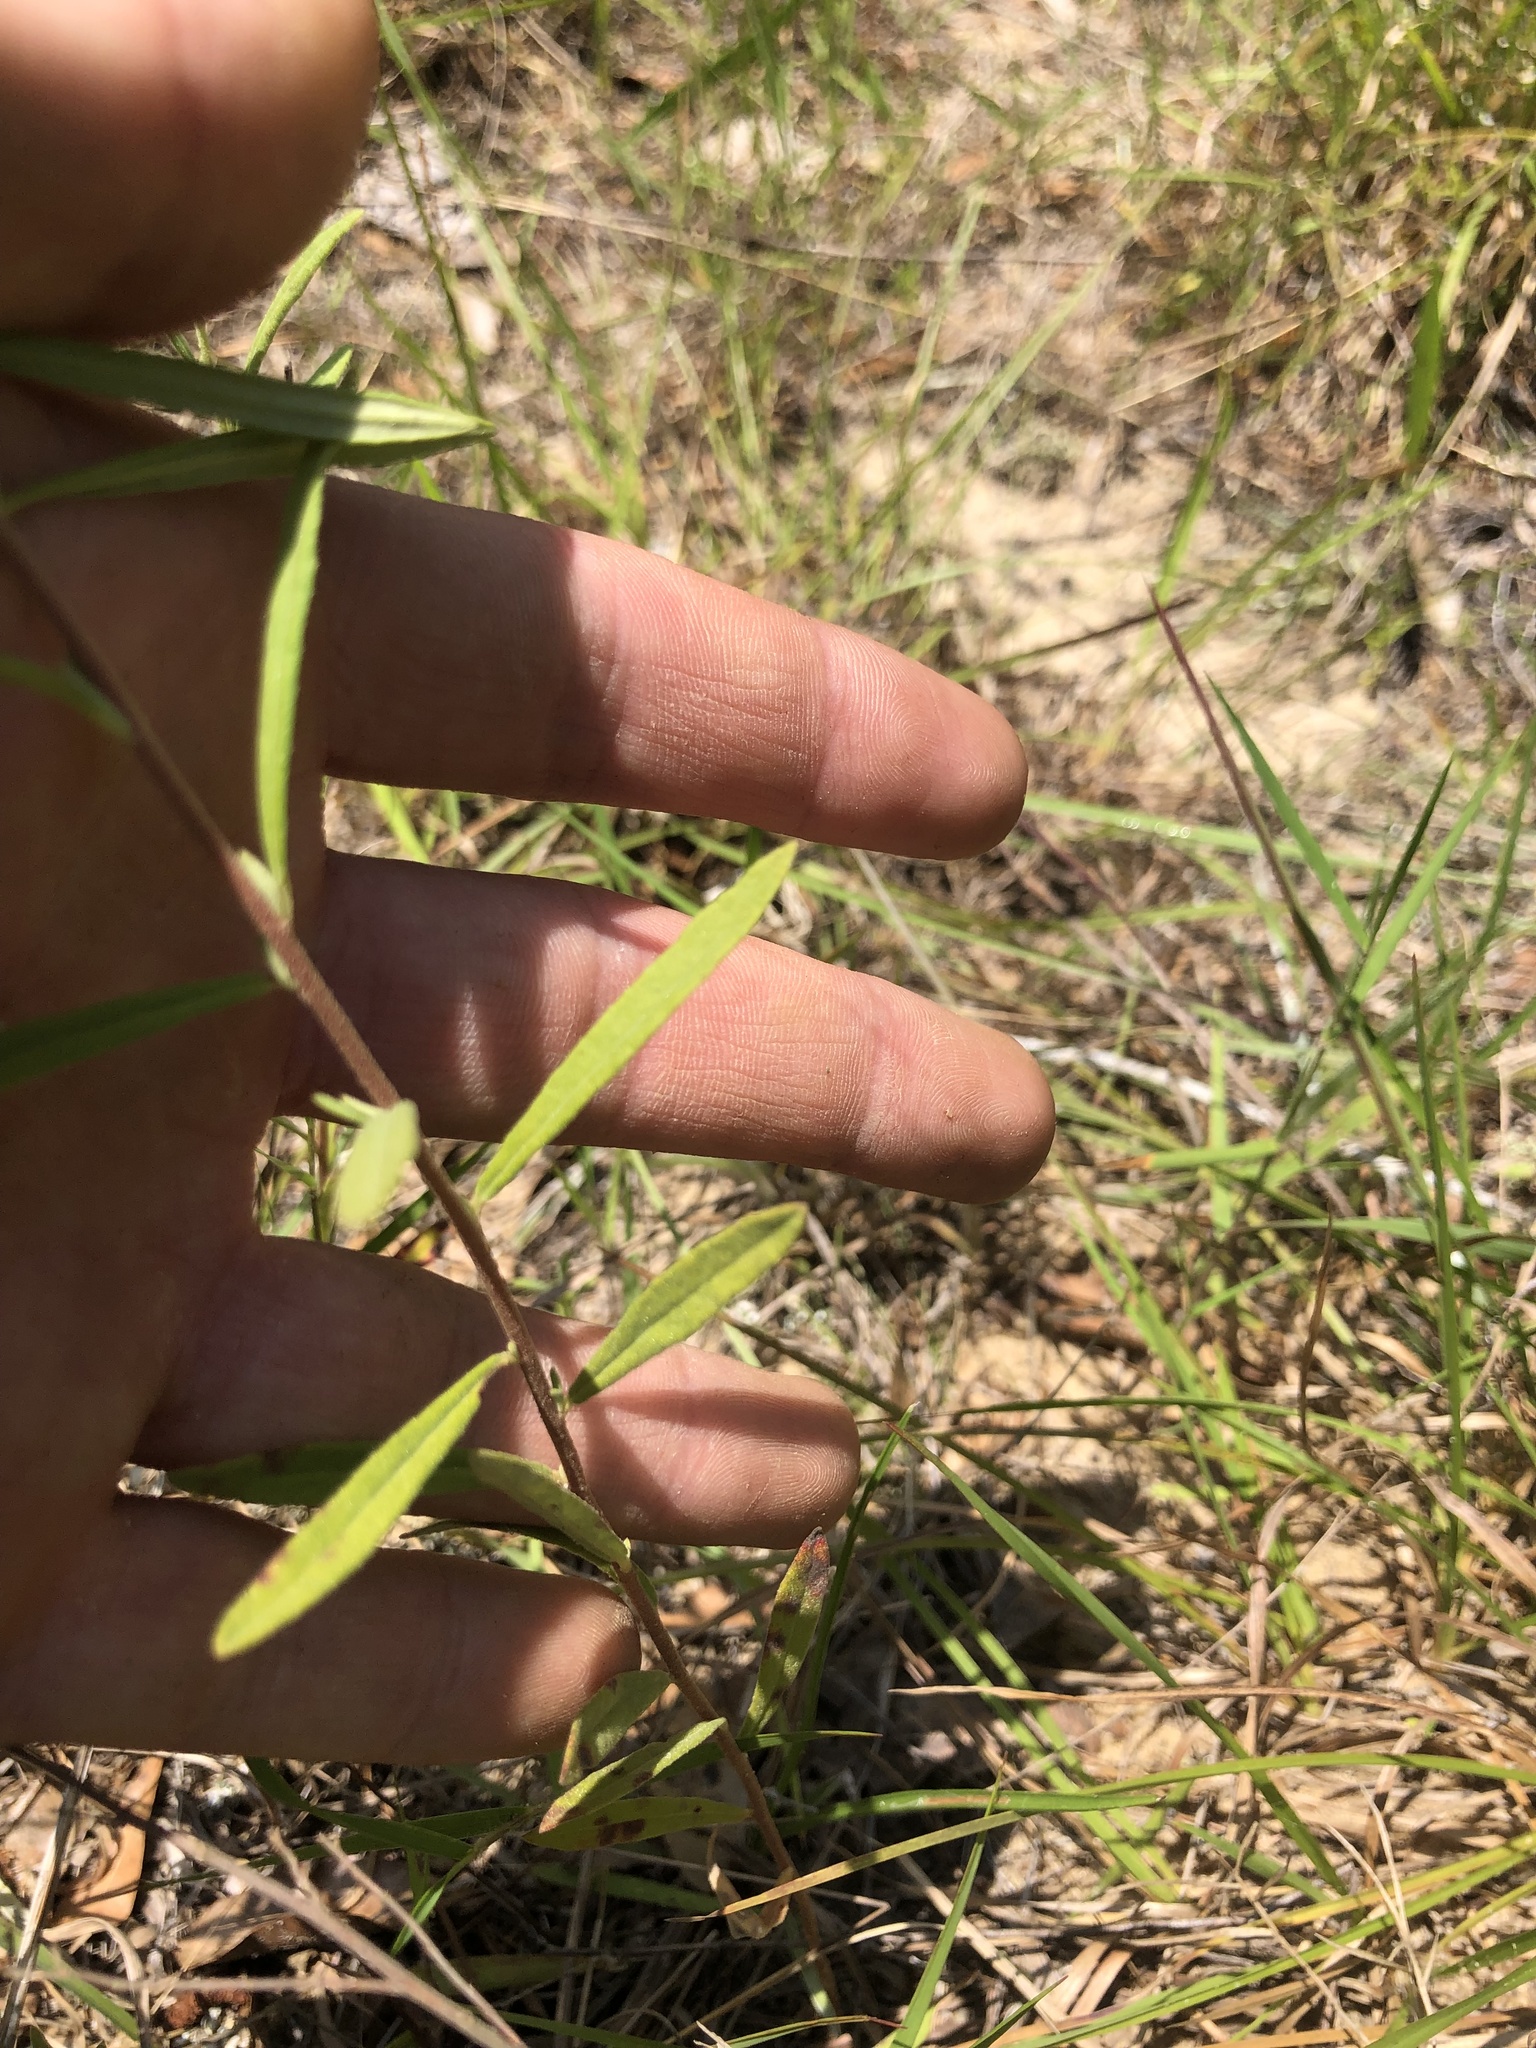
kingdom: Plantae
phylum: Tracheophyta
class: Magnoliopsida
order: Malvales
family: Cistaceae
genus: Crocanthemum
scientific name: Crocanthemum rosmarinifolium
